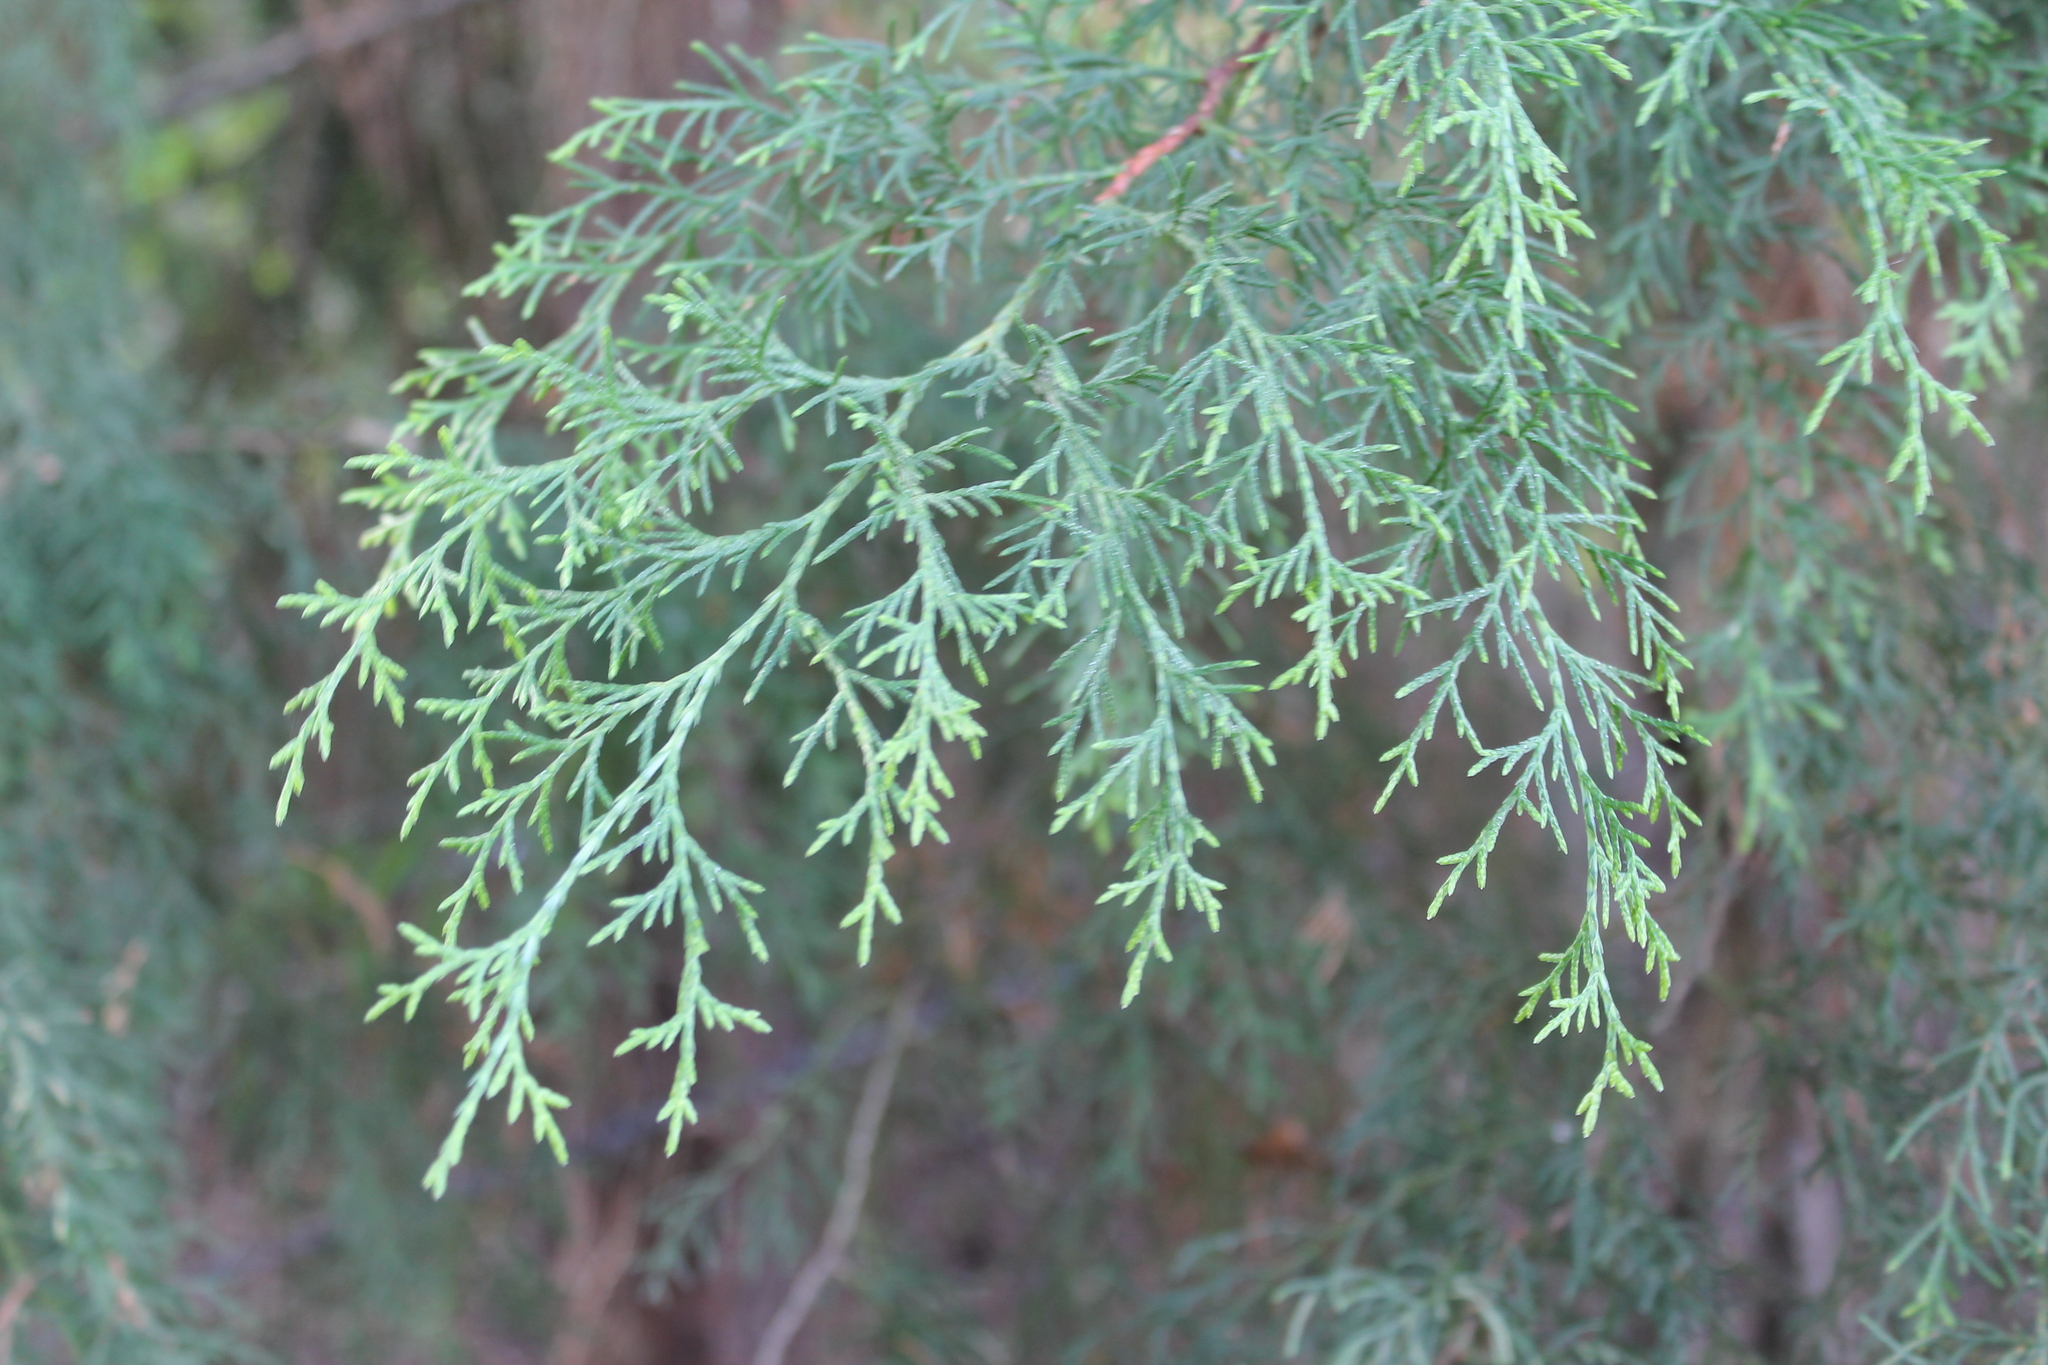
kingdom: Plantae
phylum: Tracheophyta
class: Pinopsida
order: Pinales
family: Cupressaceae
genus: Juniperus
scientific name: Juniperus flaccida
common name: Drooping juniper
